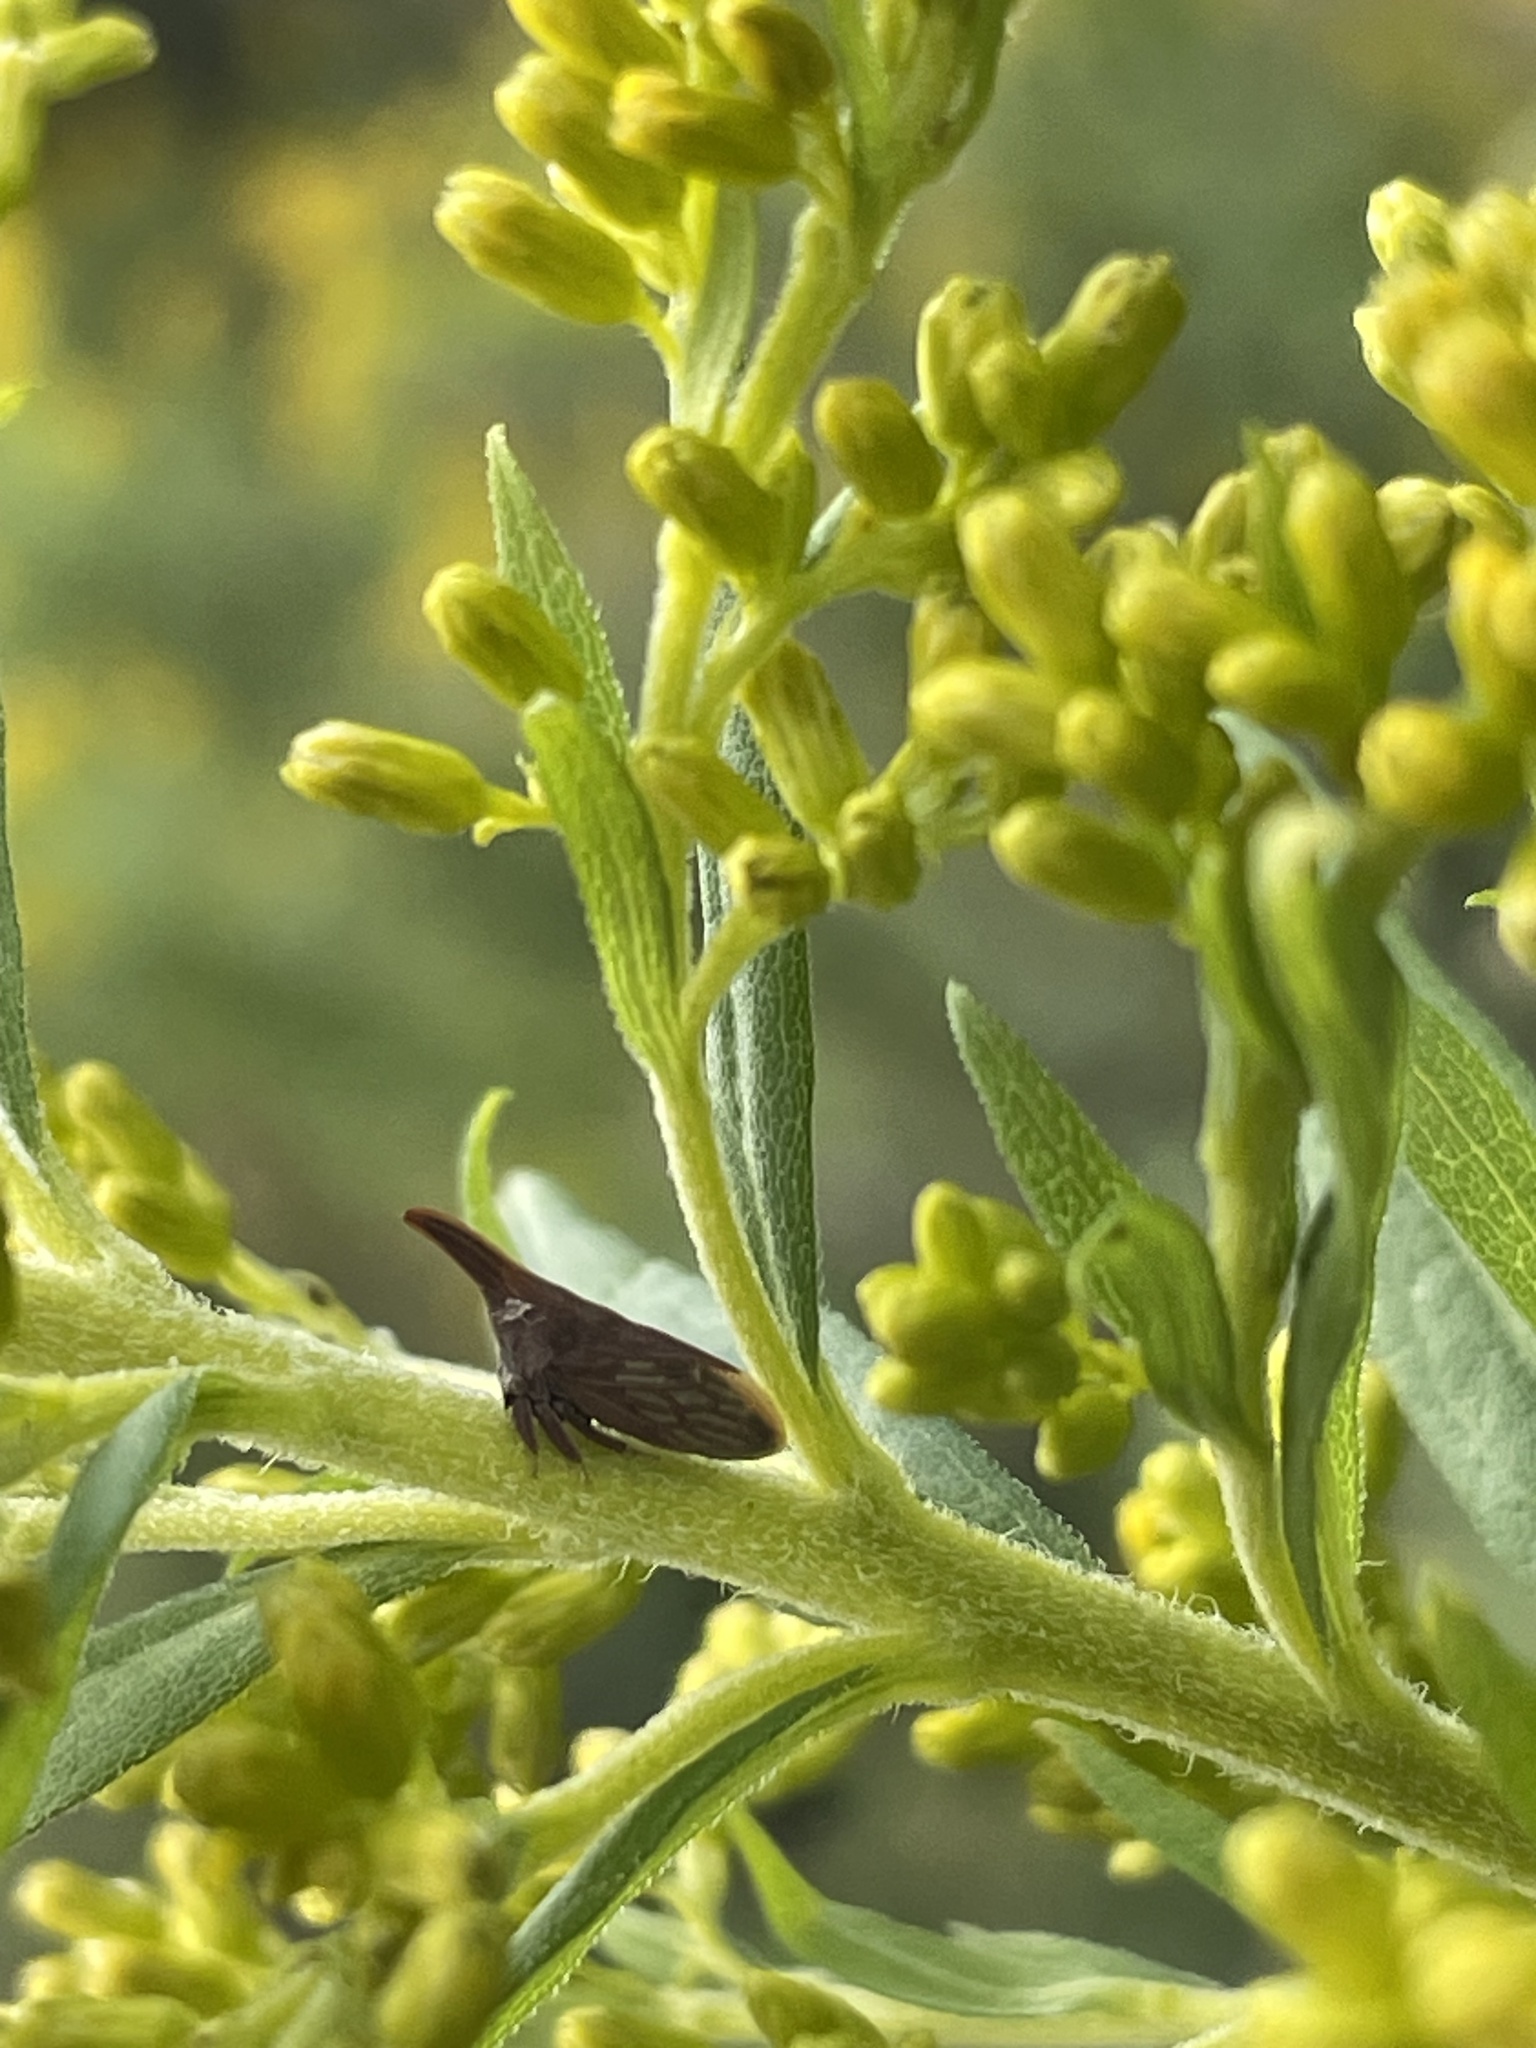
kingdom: Animalia
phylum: Arthropoda
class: Insecta
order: Hemiptera
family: Membracidae
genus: Enchenopa
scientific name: Enchenopa latipes
